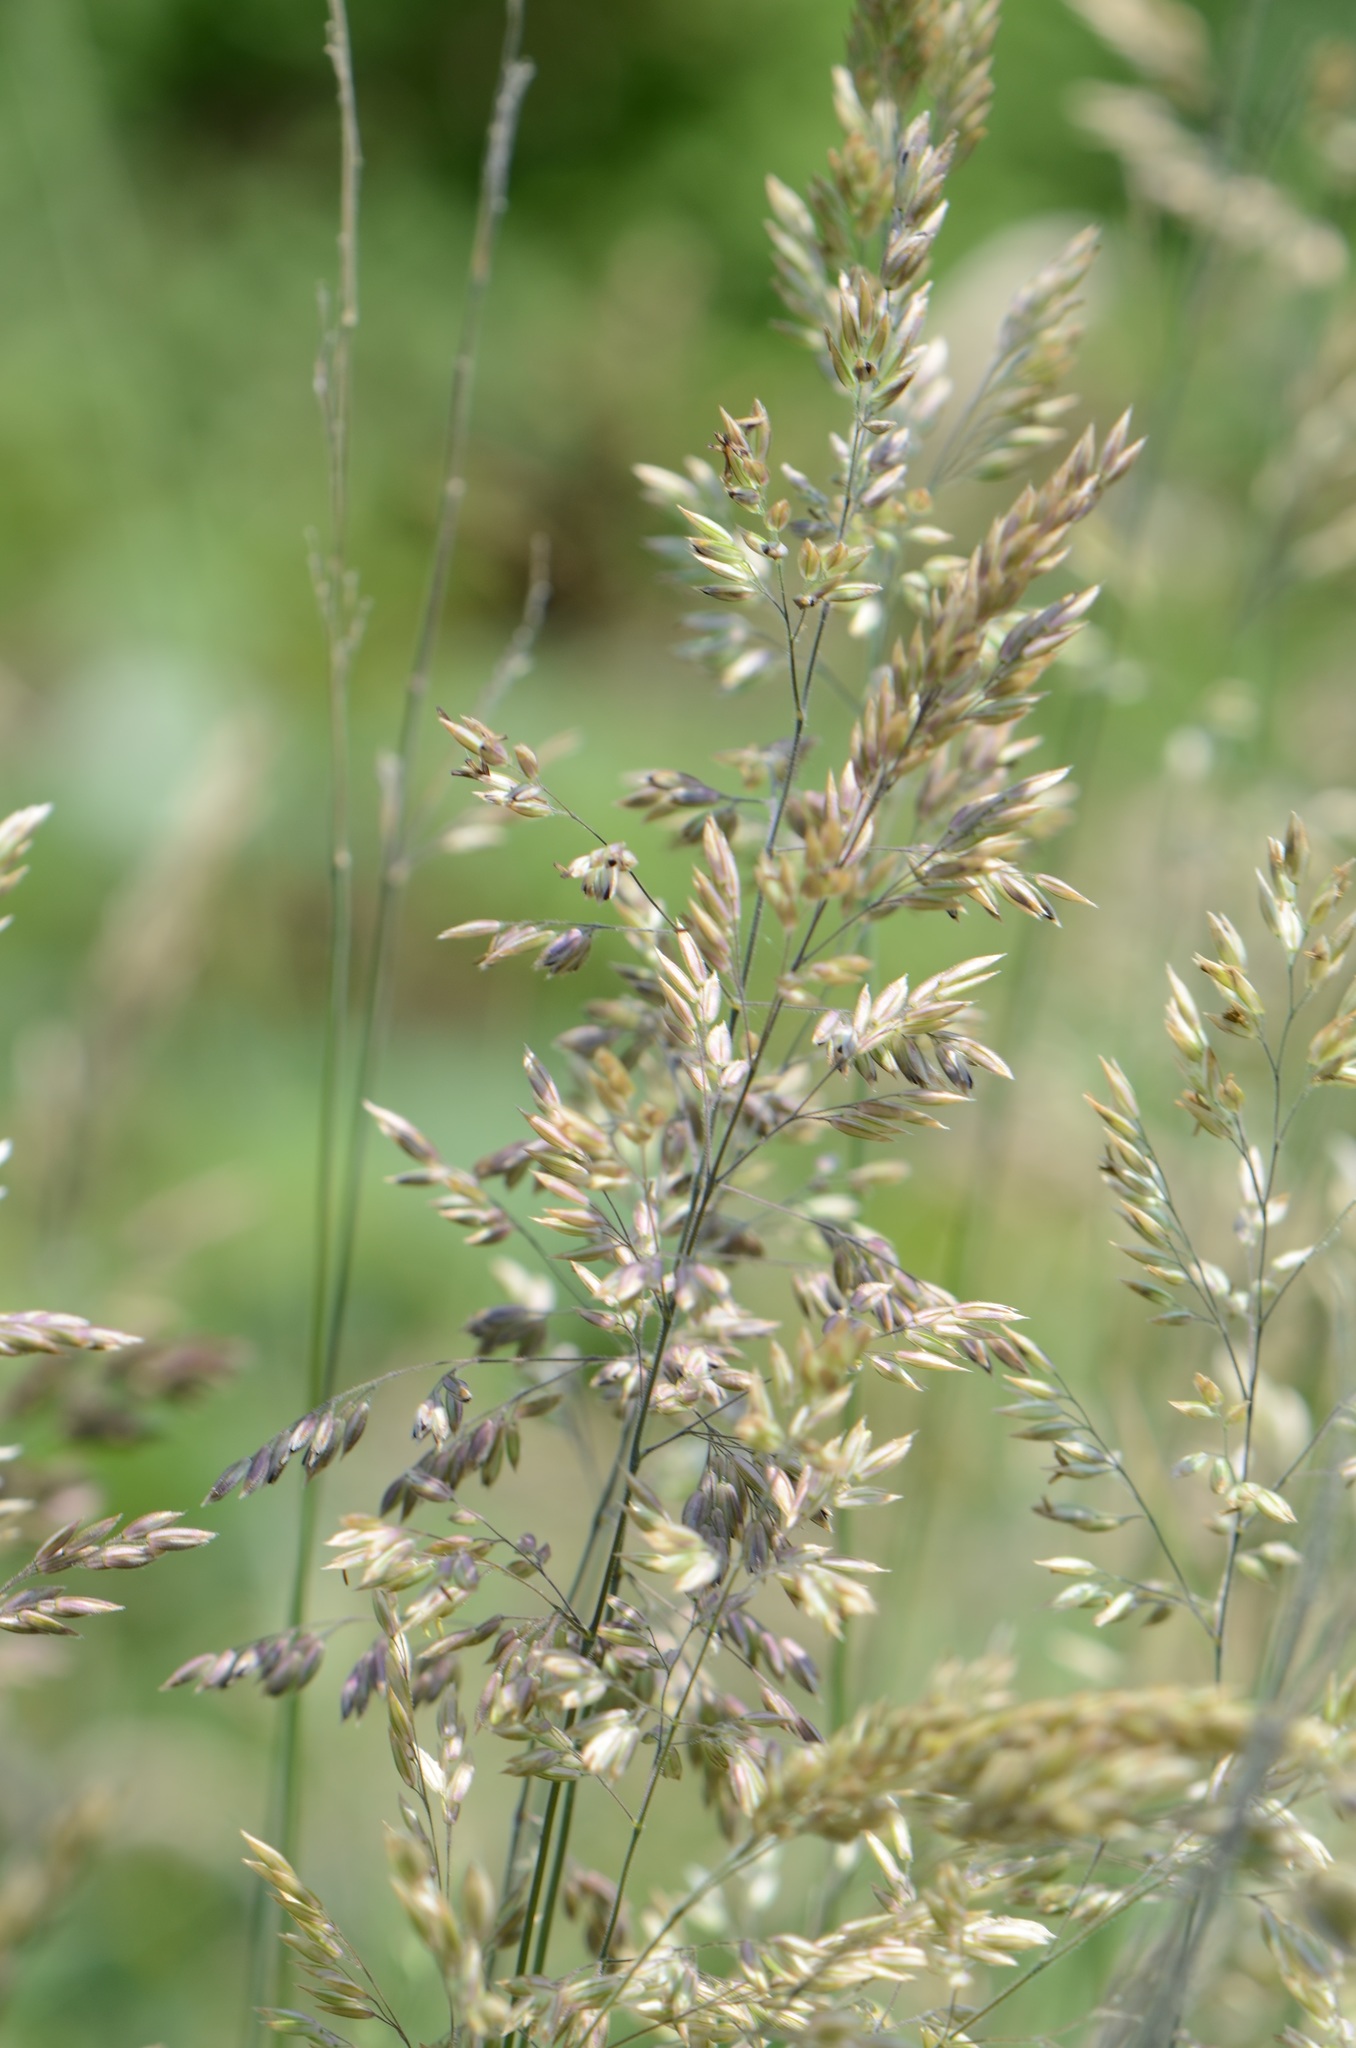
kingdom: Plantae
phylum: Tracheophyta
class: Liliopsida
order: Poales
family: Poaceae
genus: Holcus
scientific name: Holcus lanatus
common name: Yorkshire-fog
